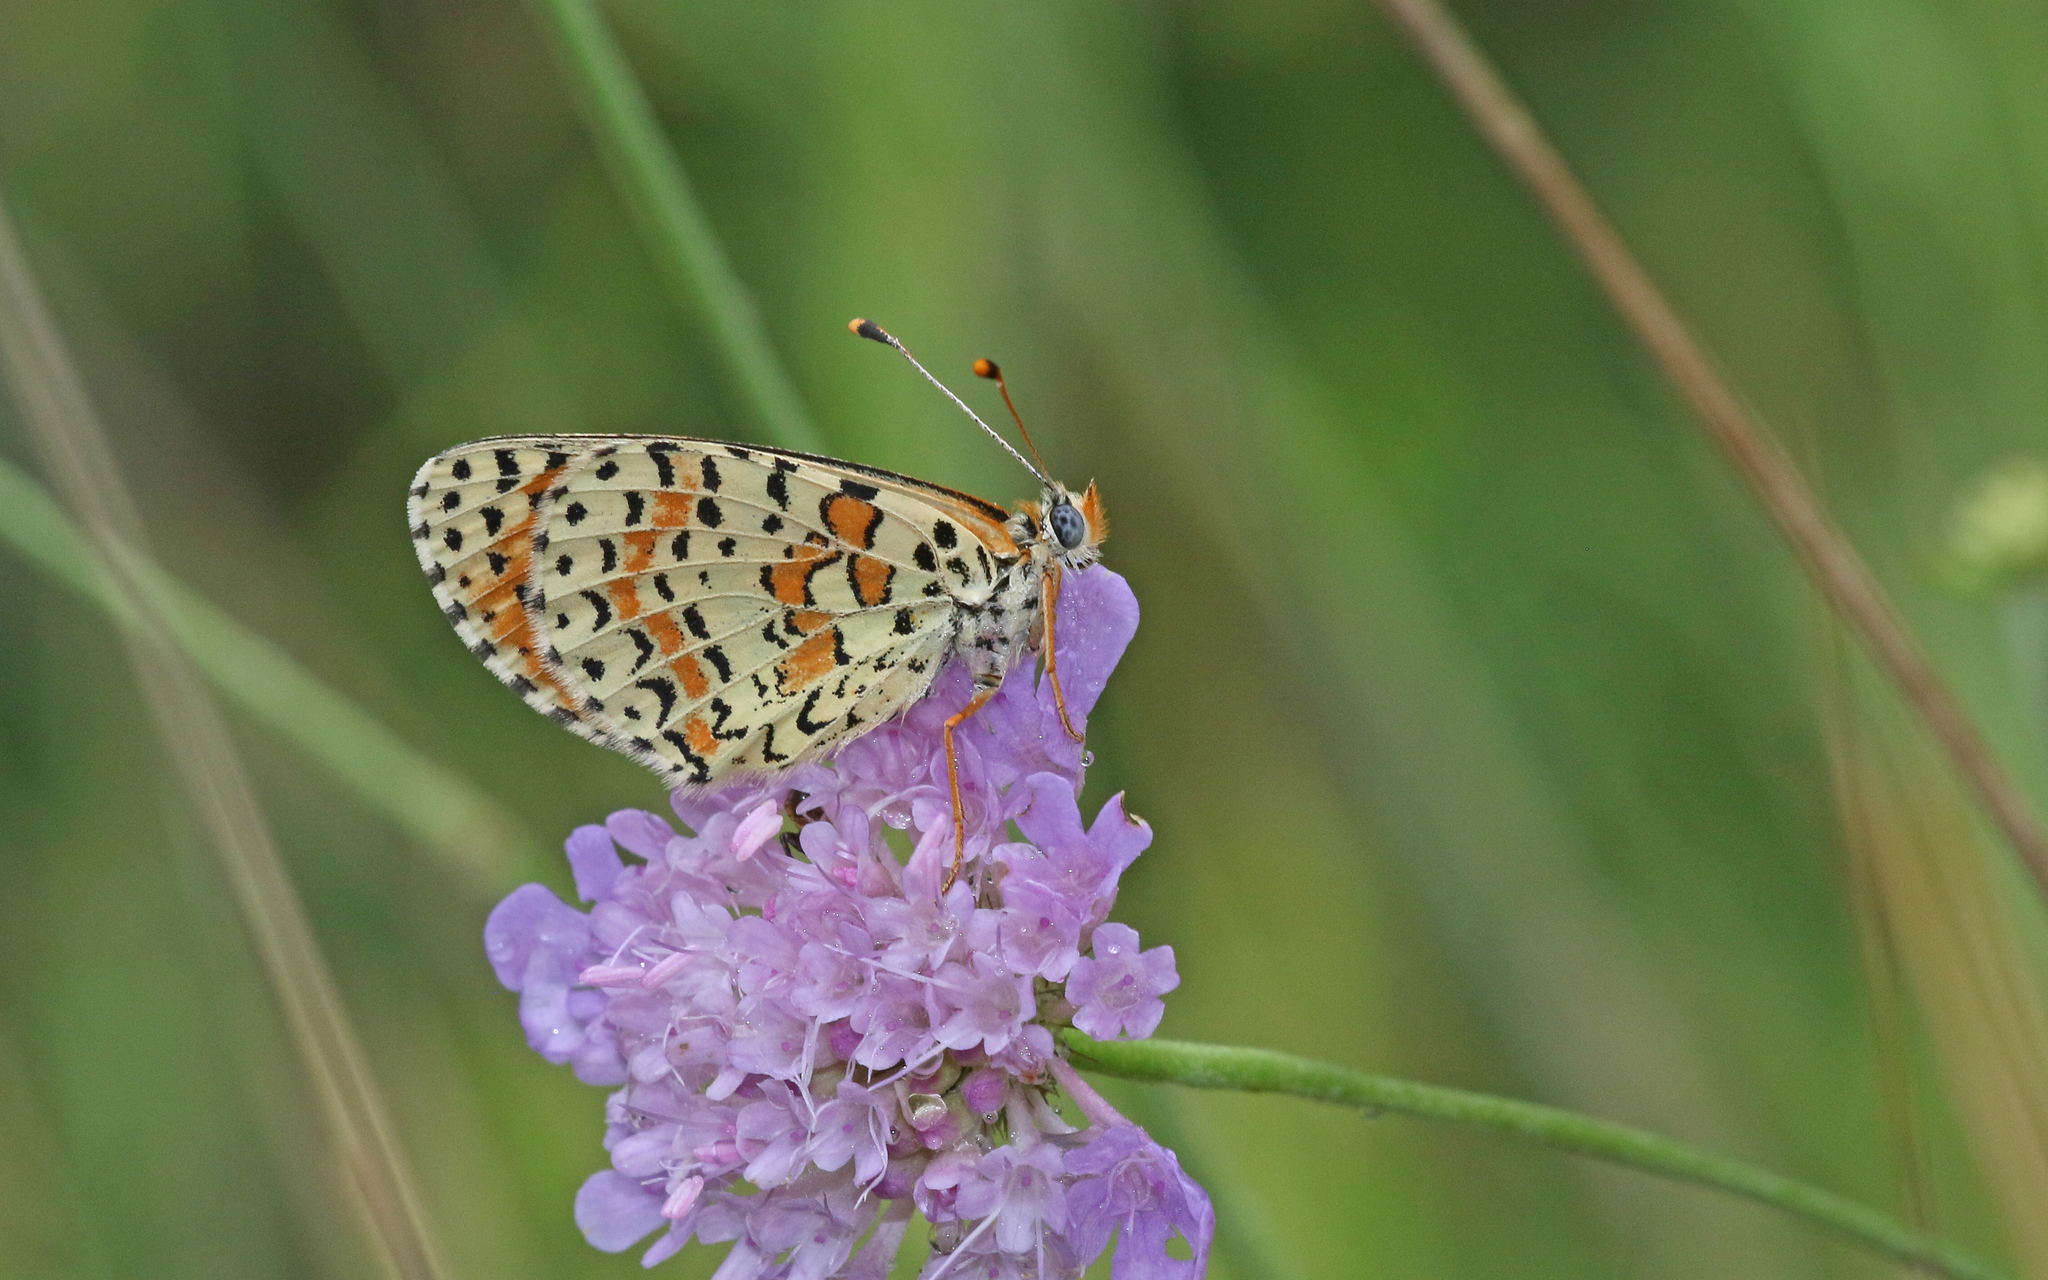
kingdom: Animalia
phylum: Arthropoda
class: Insecta
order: Lepidoptera
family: Nymphalidae
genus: Melitaea
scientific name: Melitaea didyma
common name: Spotted fritillary
